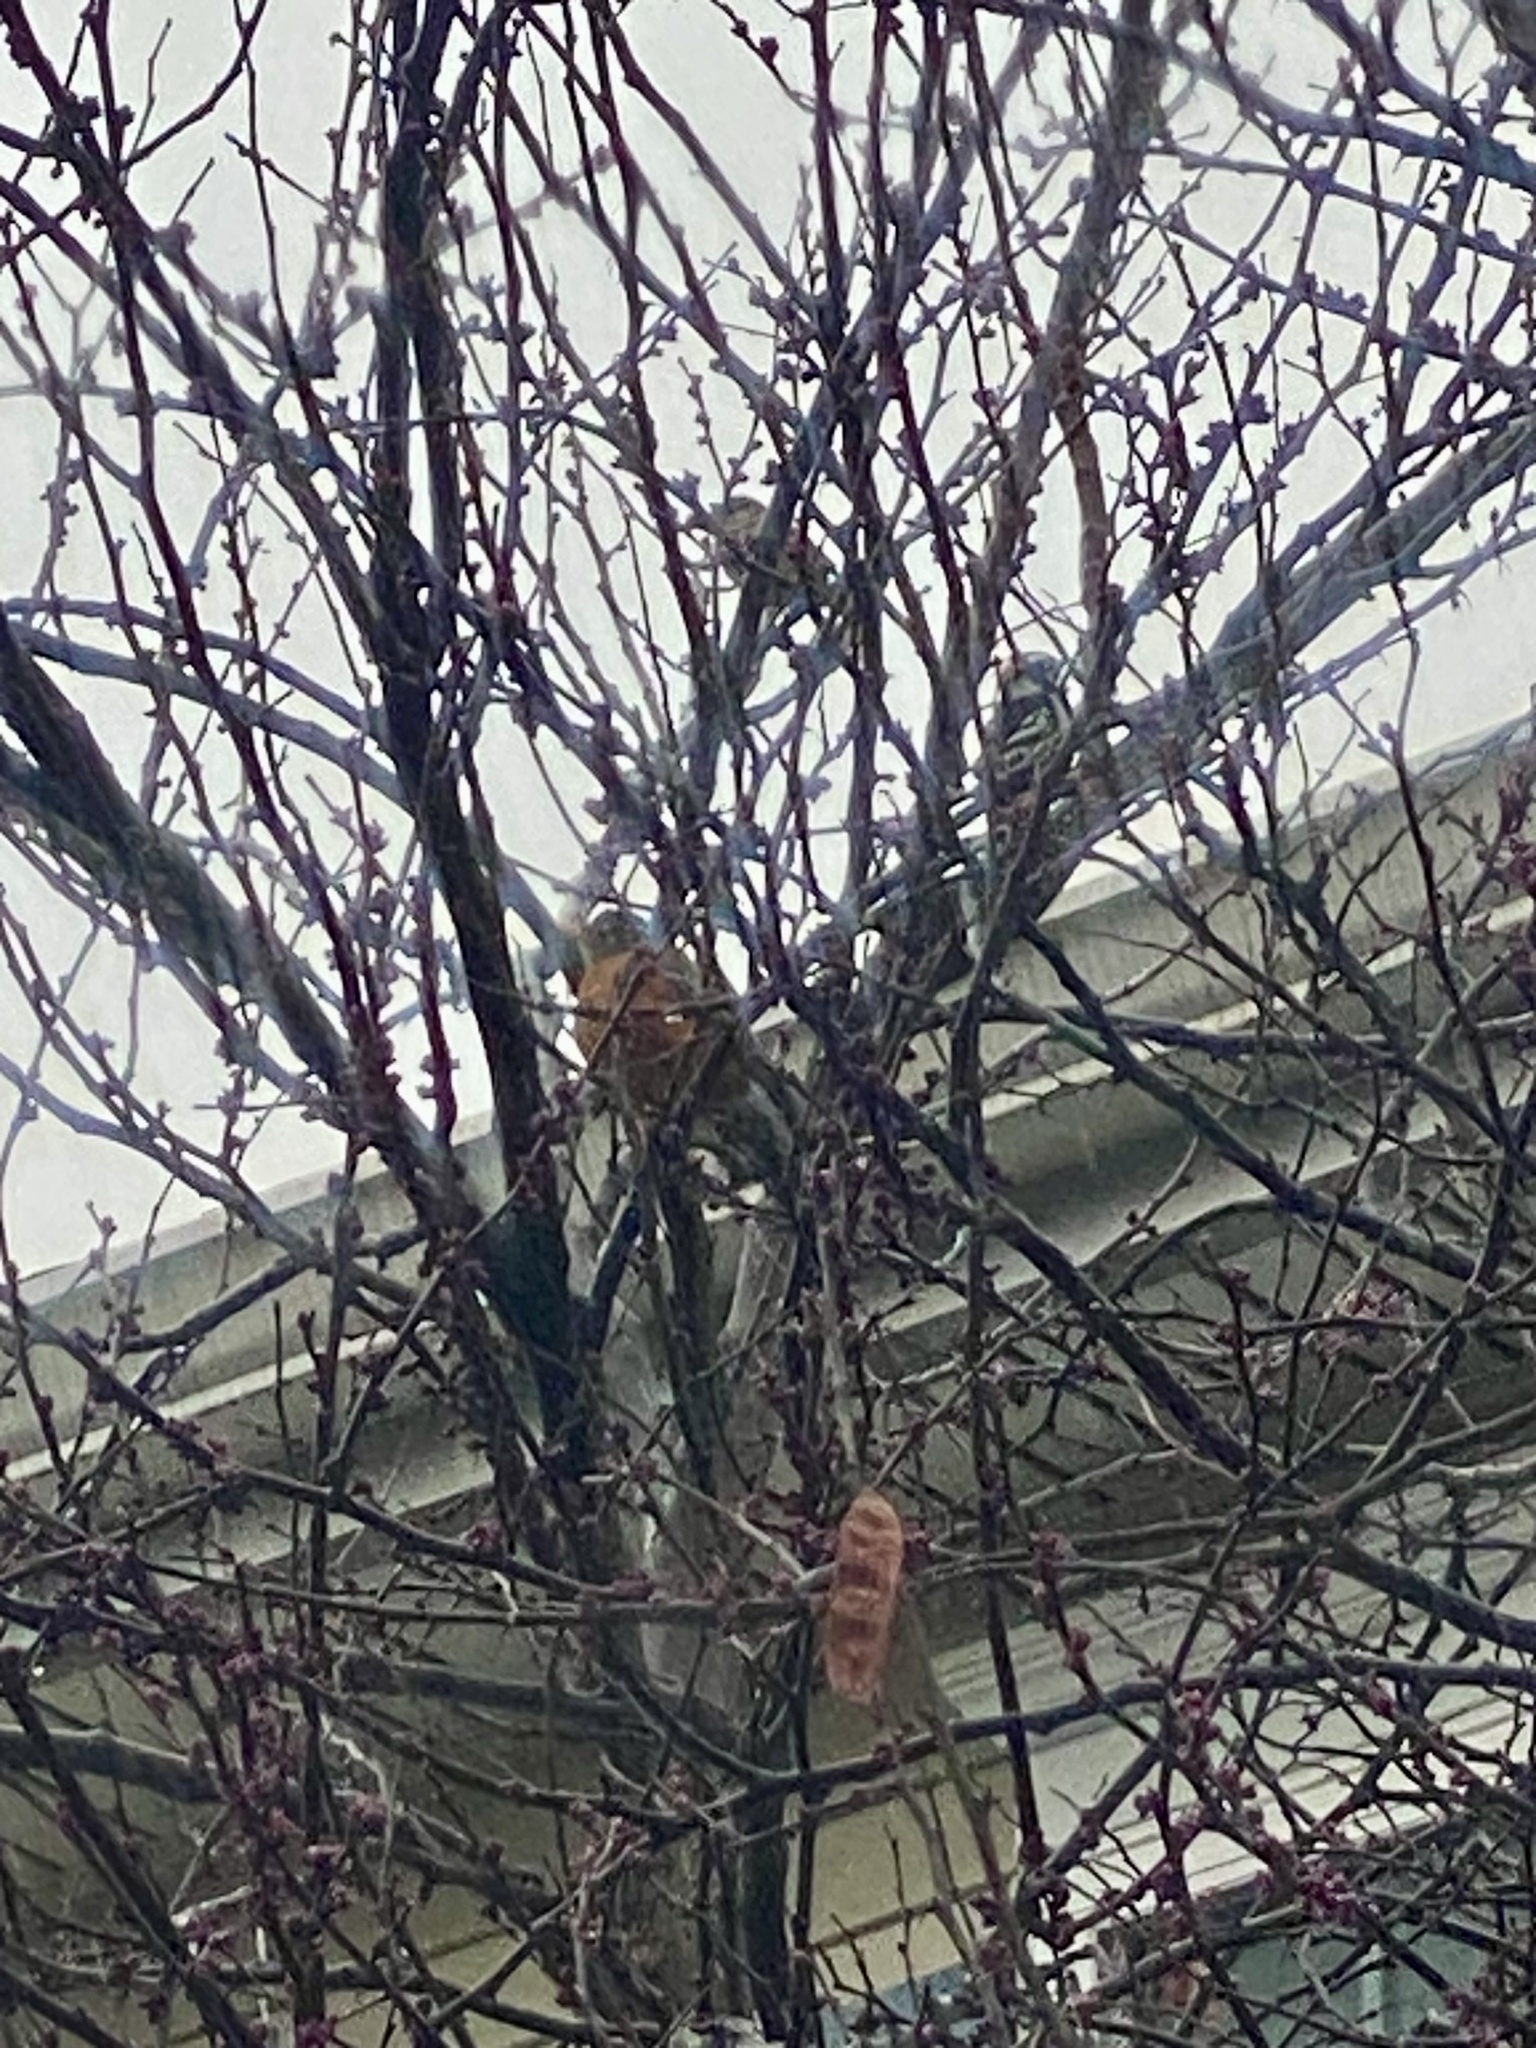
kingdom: Animalia
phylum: Chordata
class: Aves
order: Passeriformes
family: Turdidae
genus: Turdus
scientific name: Turdus migratorius
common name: American robin
